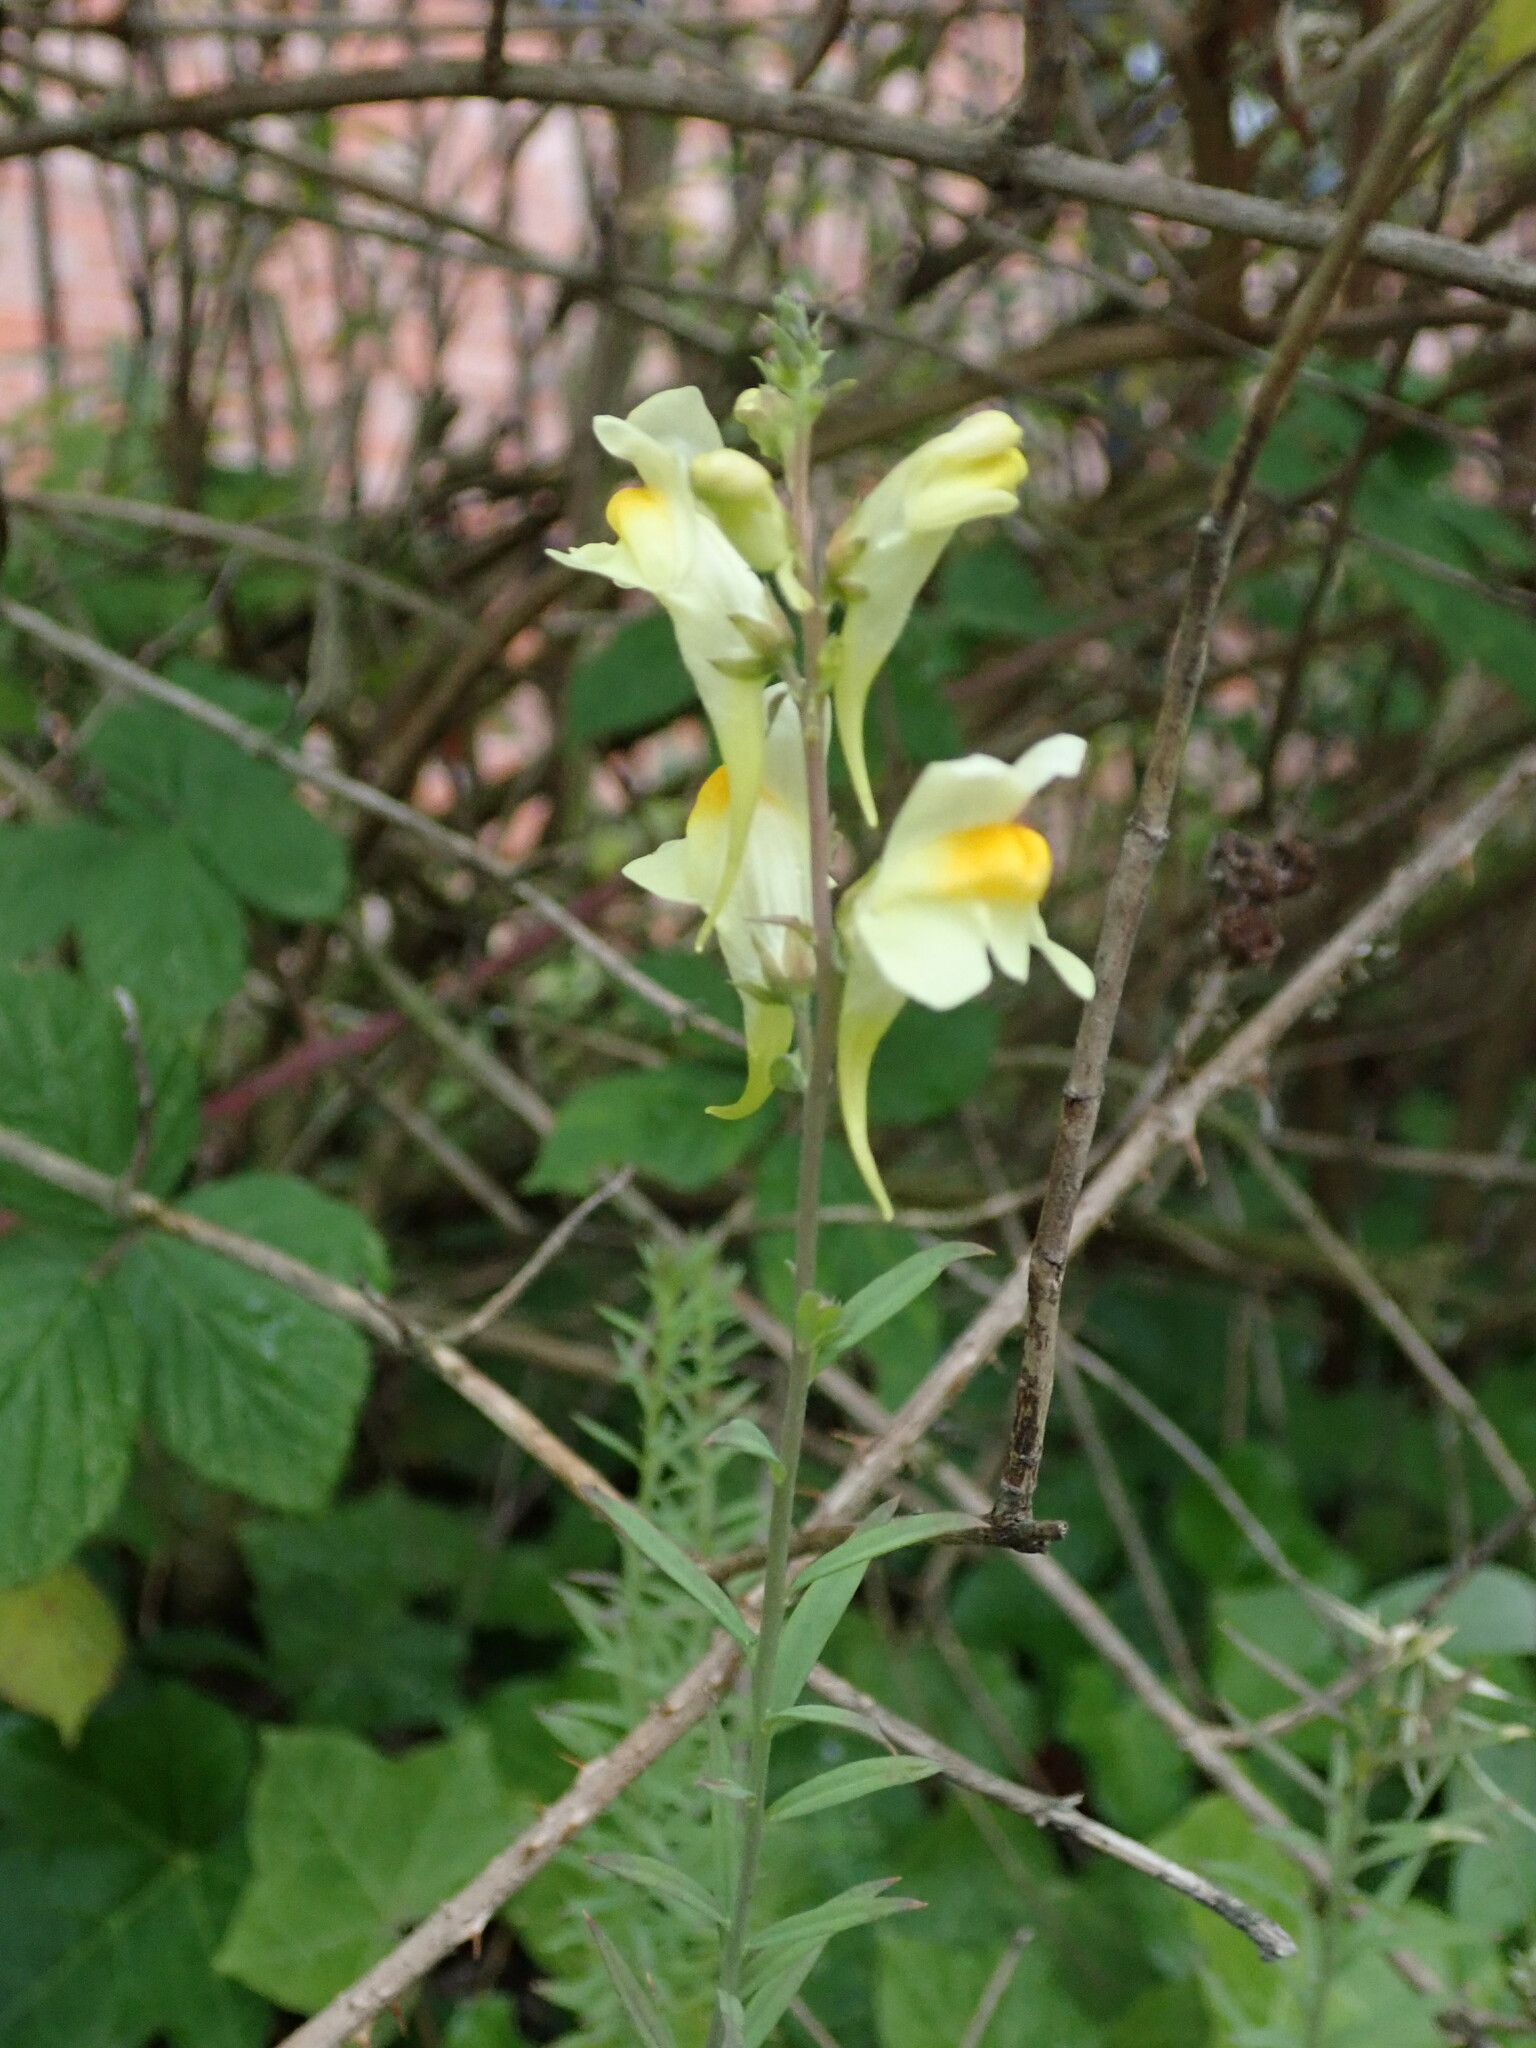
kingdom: Plantae
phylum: Tracheophyta
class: Magnoliopsida
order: Lamiales
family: Plantaginaceae
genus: Linaria
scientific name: Linaria vulgaris
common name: Butter and eggs
